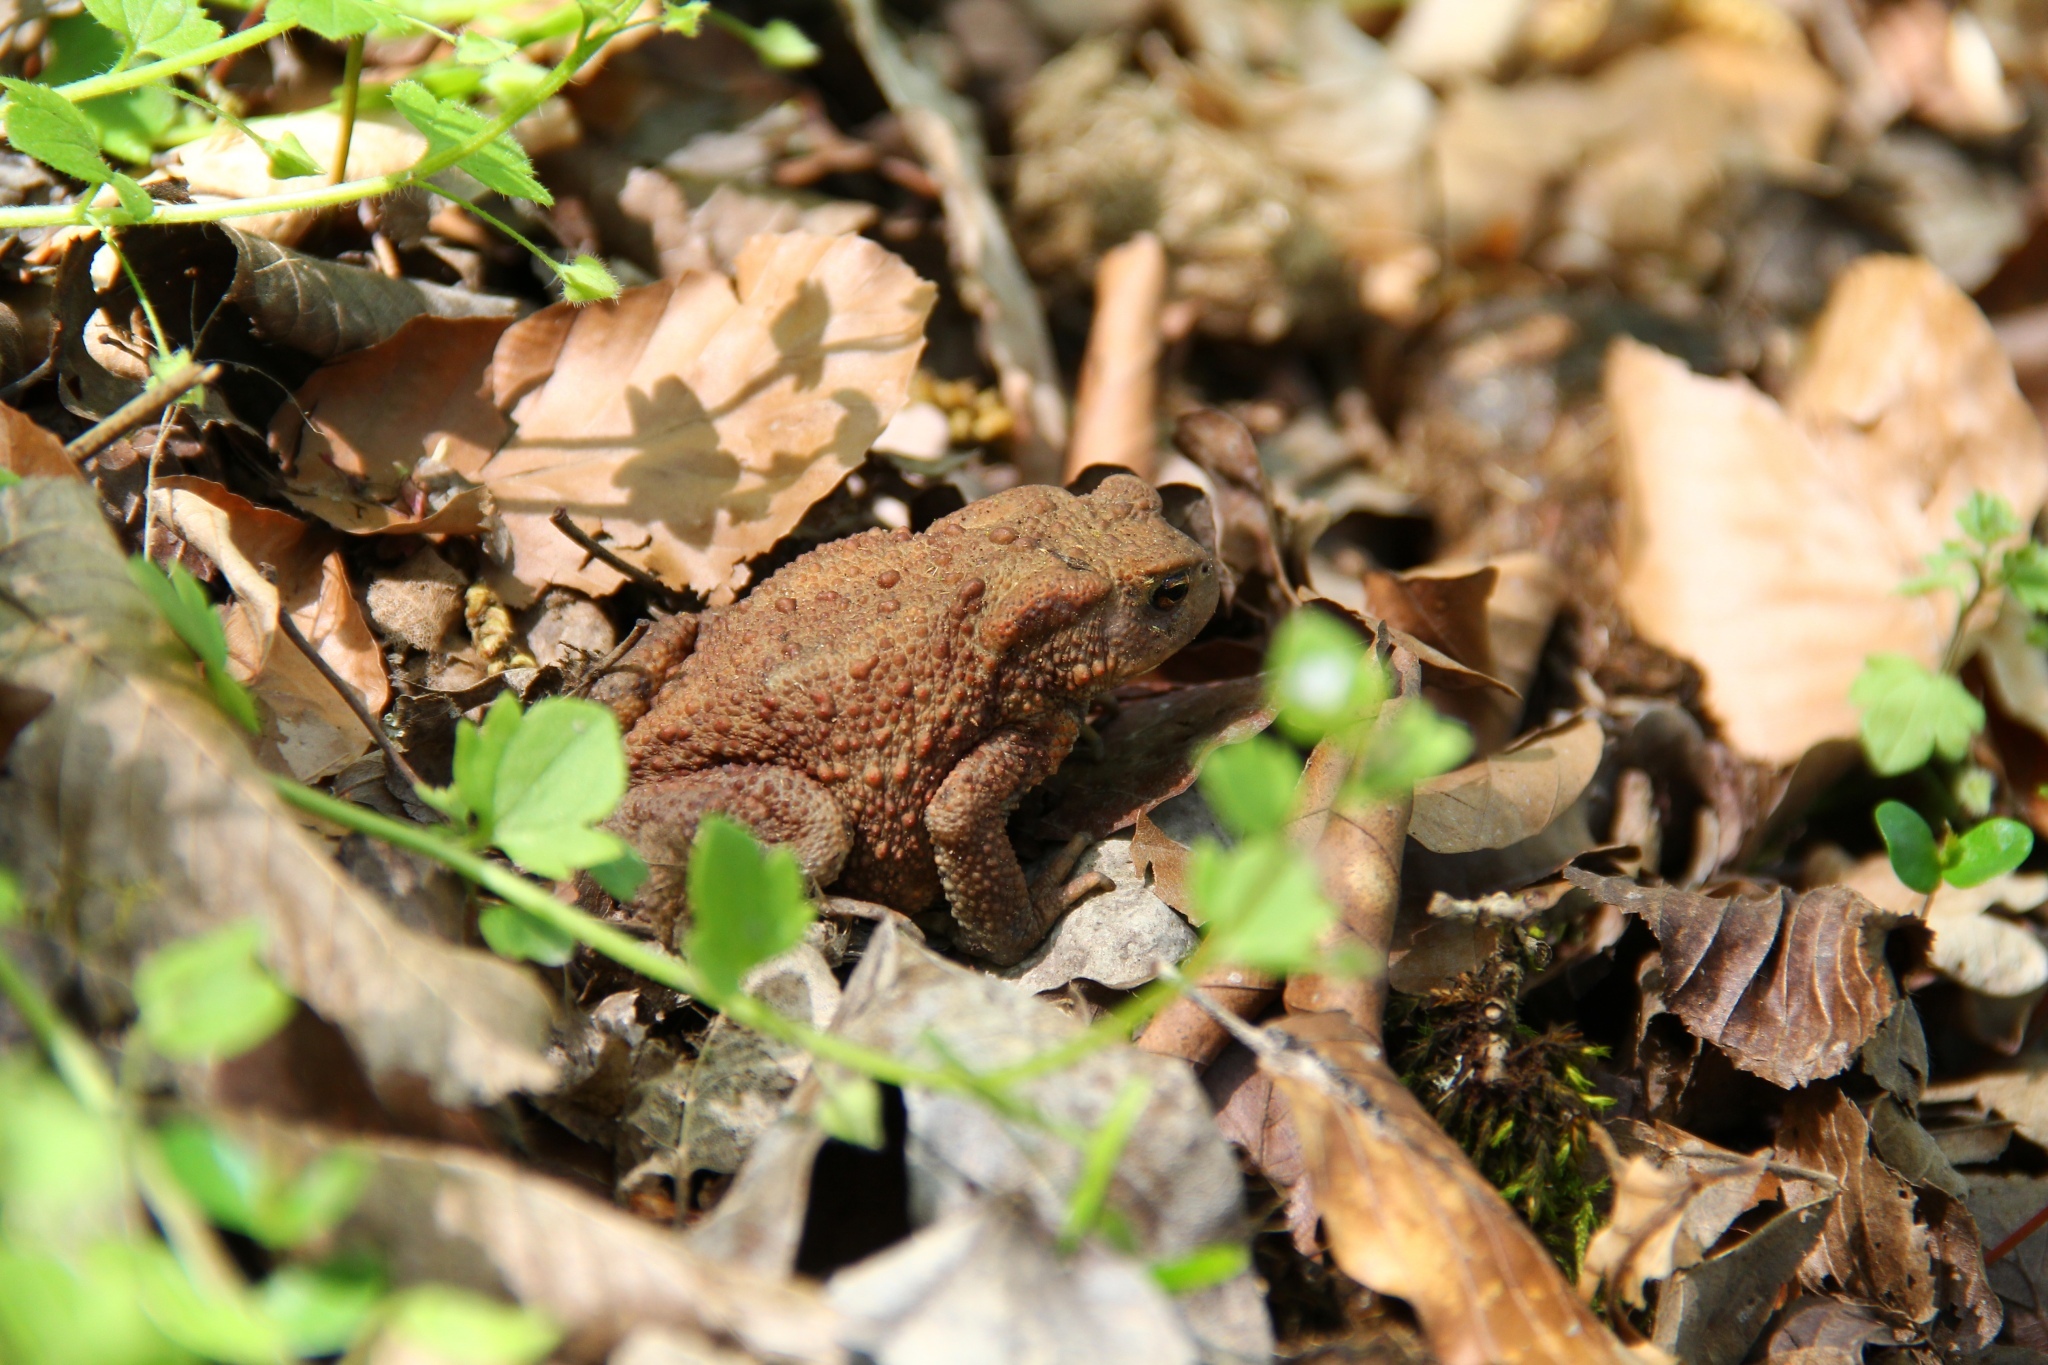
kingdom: Animalia
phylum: Chordata
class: Amphibia
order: Anura
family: Bufonidae
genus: Bufo
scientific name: Bufo bufo
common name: Common toad
